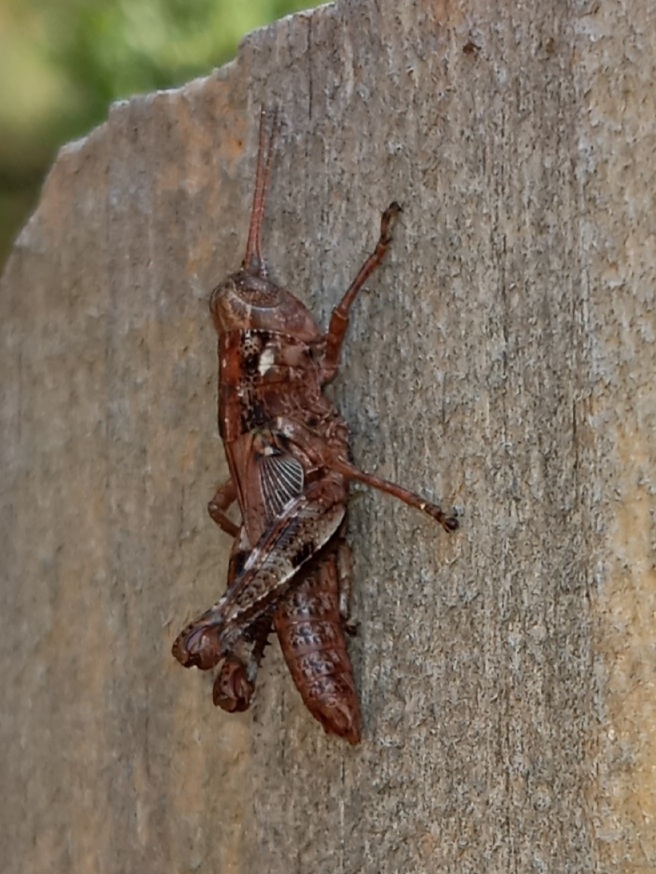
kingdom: Animalia
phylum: Arthropoda
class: Insecta
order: Orthoptera
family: Acrididae
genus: Melanoplus
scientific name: Melanoplus punctulatus
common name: Pine-tree spur-throat grasshopper
